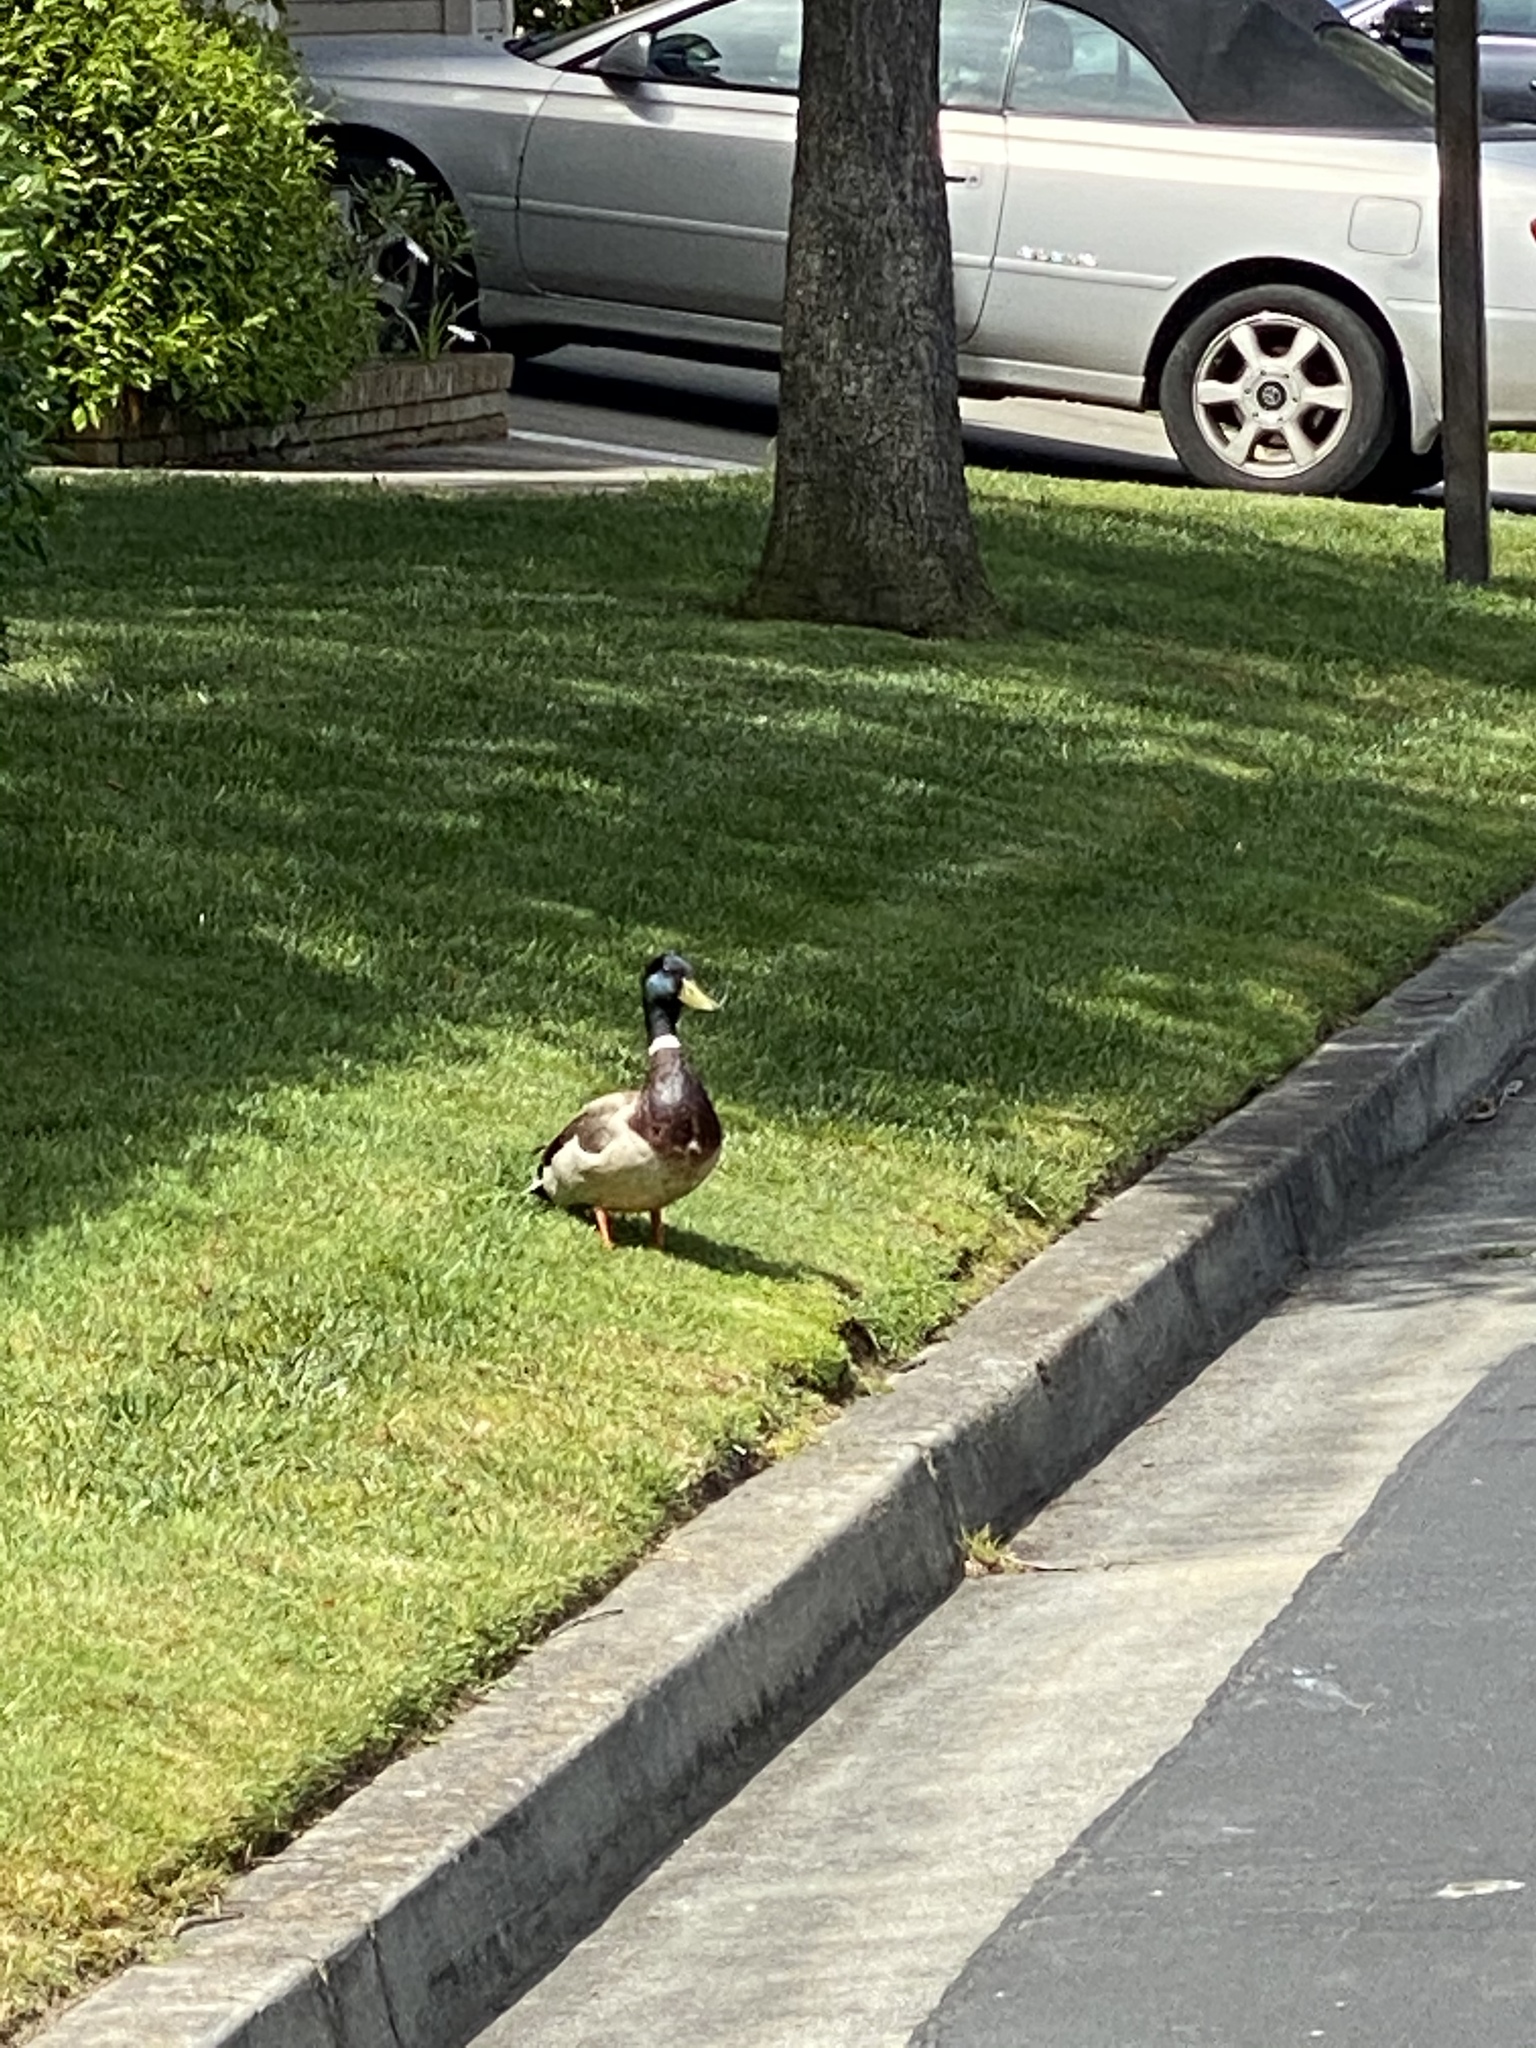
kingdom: Animalia
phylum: Chordata
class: Aves
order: Anseriformes
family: Anatidae
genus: Anas
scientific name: Anas platyrhynchos
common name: Mallard
